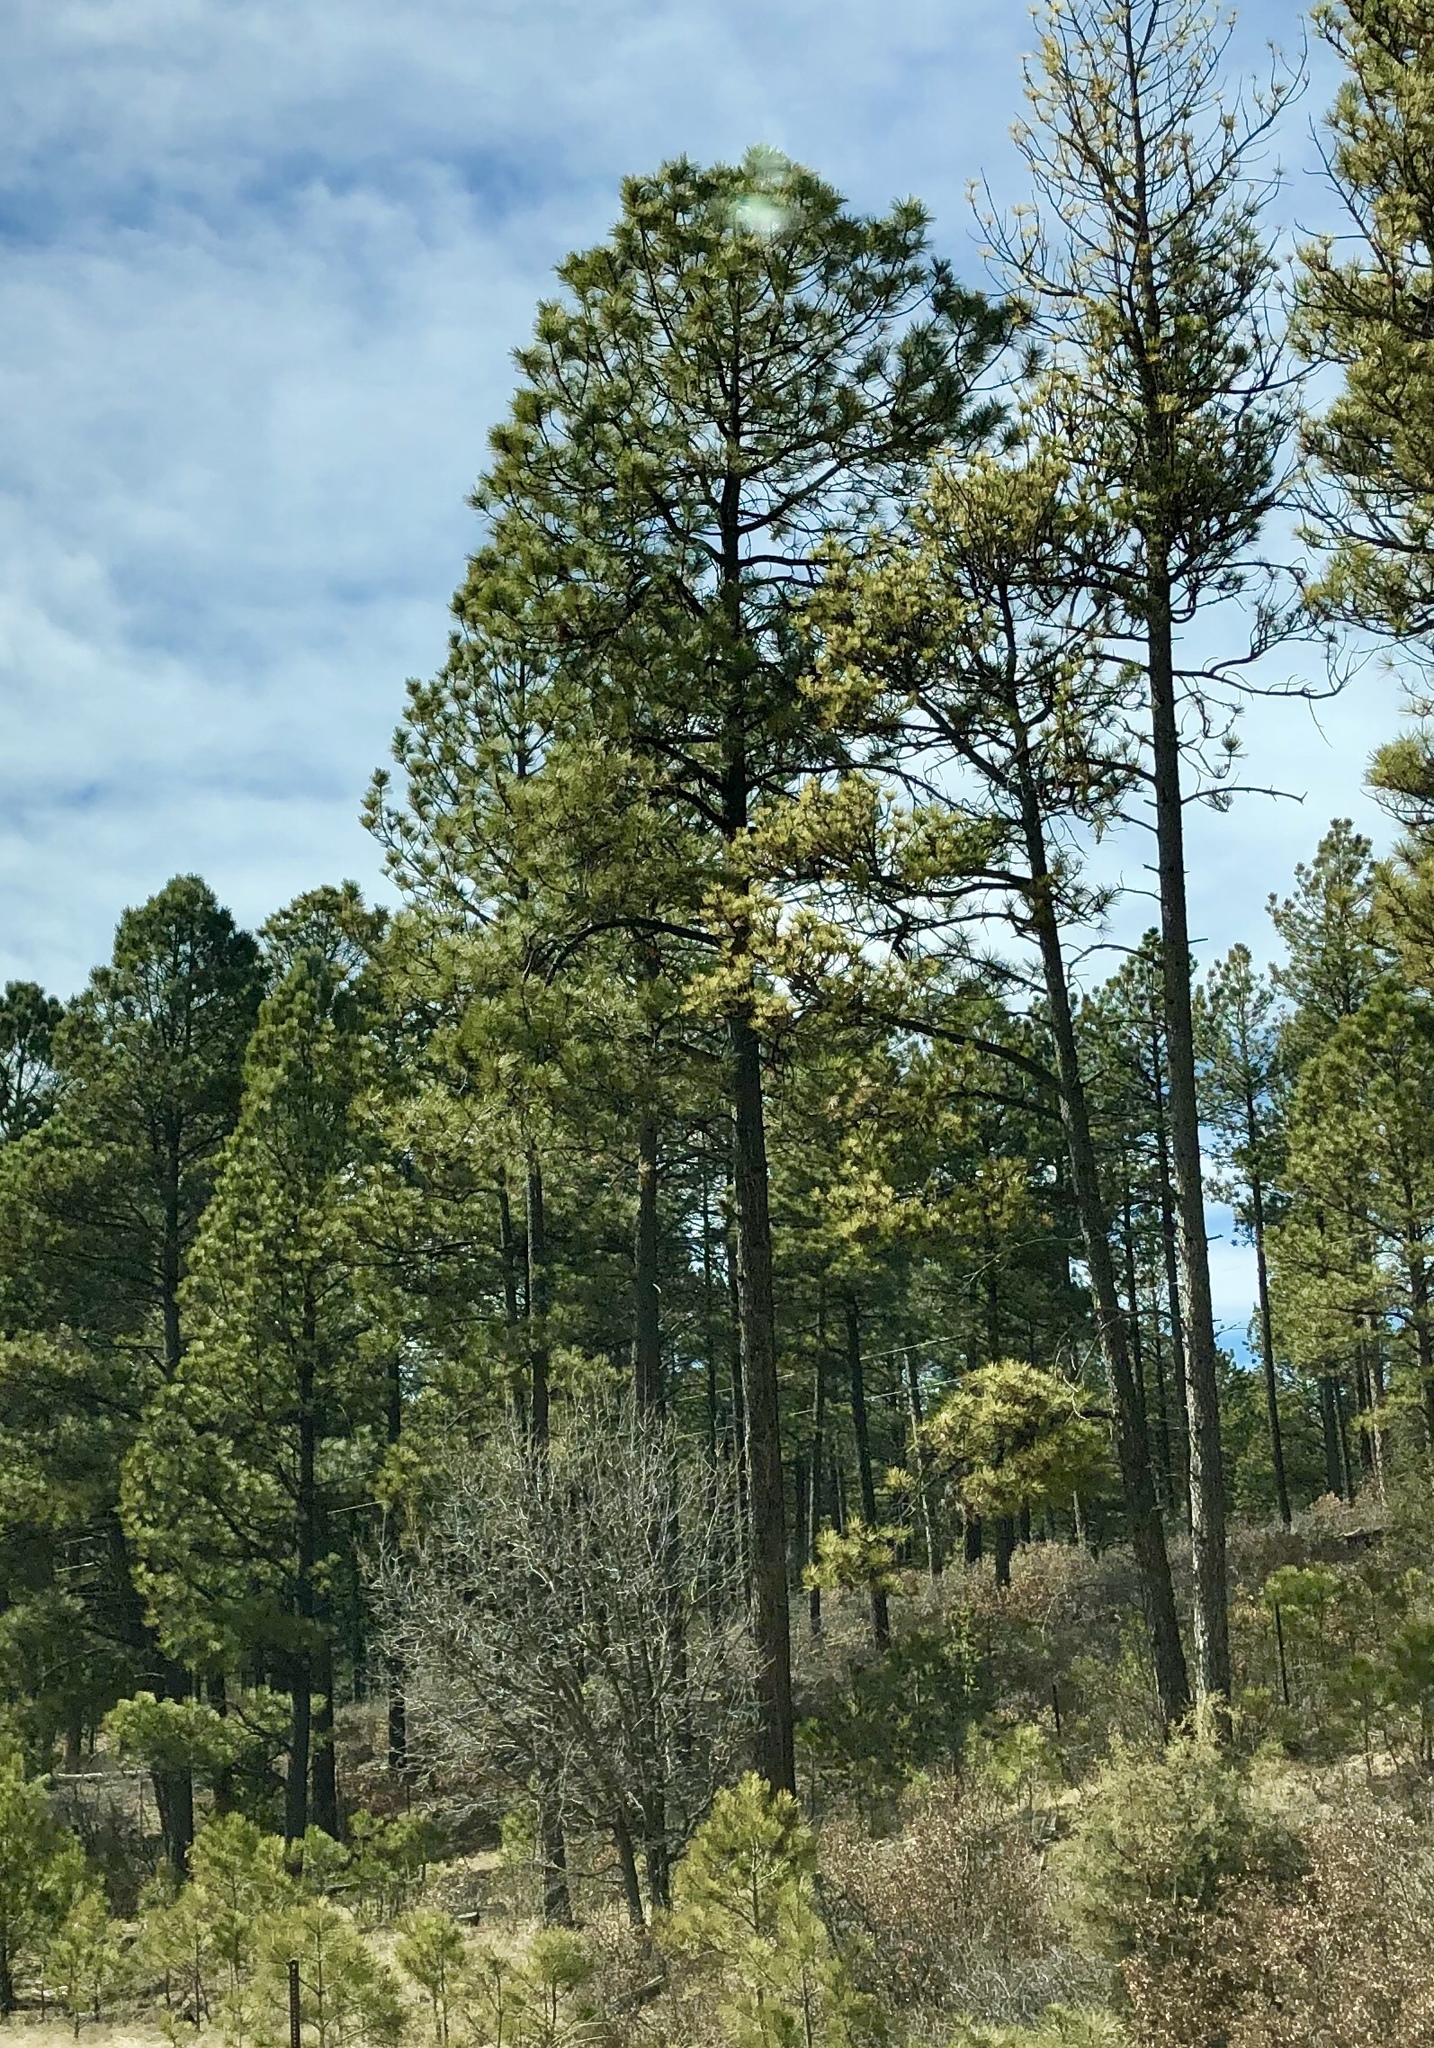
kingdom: Plantae
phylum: Tracheophyta
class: Pinopsida
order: Pinales
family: Pinaceae
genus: Pinus
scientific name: Pinus ponderosa
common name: Western yellow-pine
